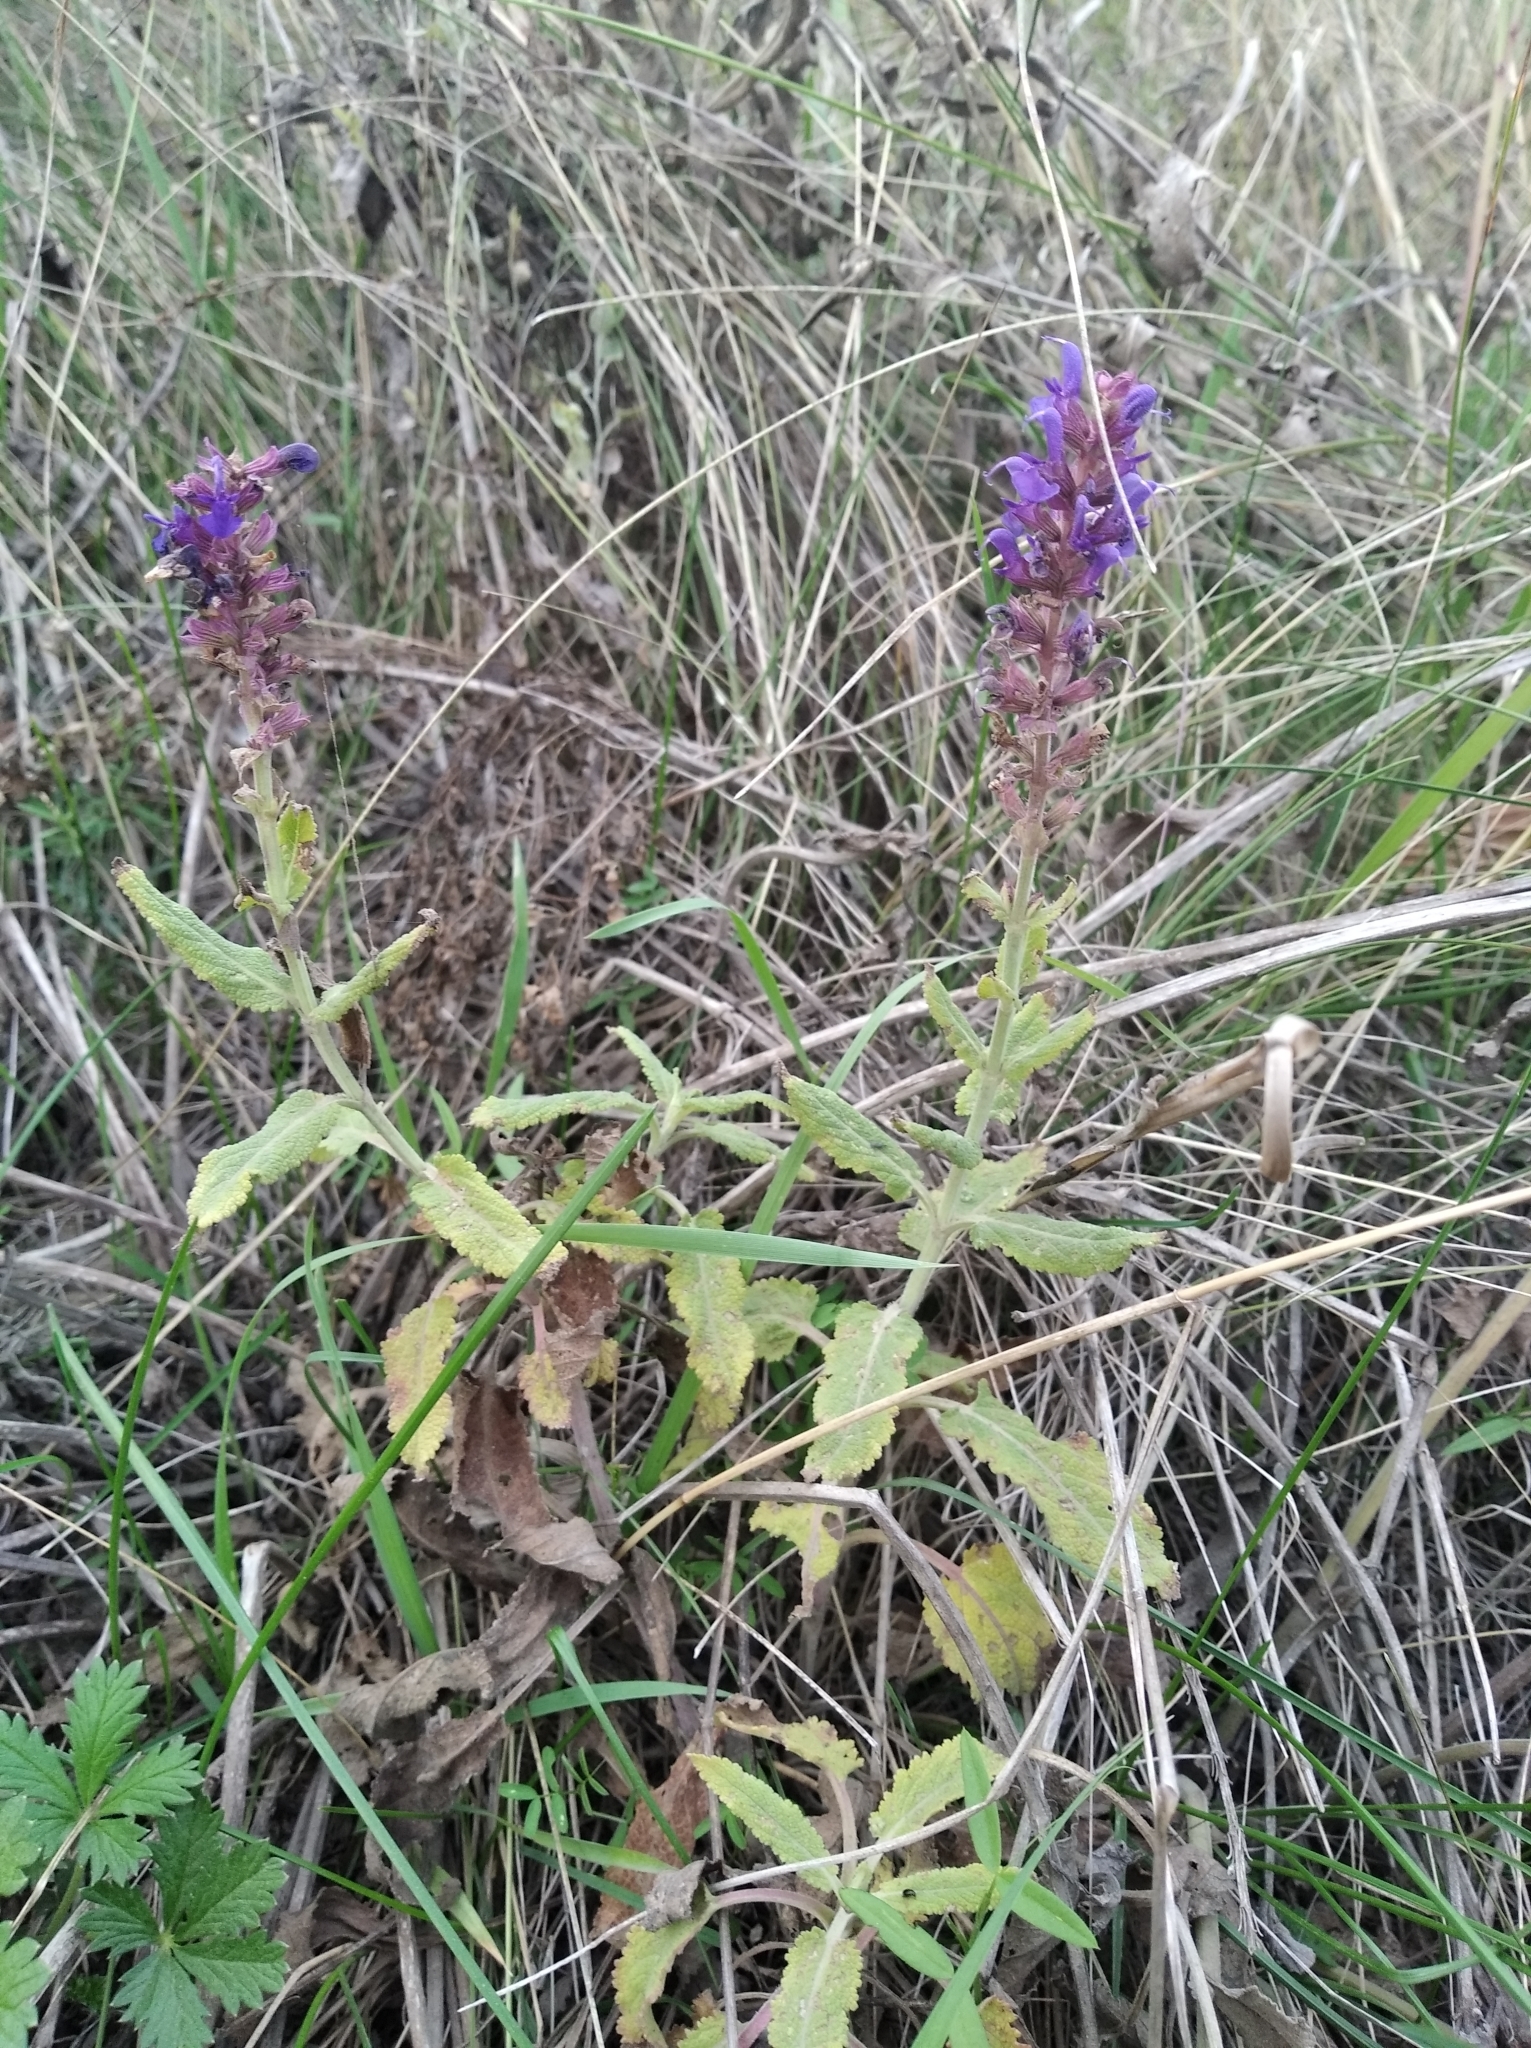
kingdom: Plantae
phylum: Tracheophyta
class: Magnoliopsida
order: Lamiales
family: Lamiaceae
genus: Salvia
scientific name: Salvia nemorosa
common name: Balkan clary
